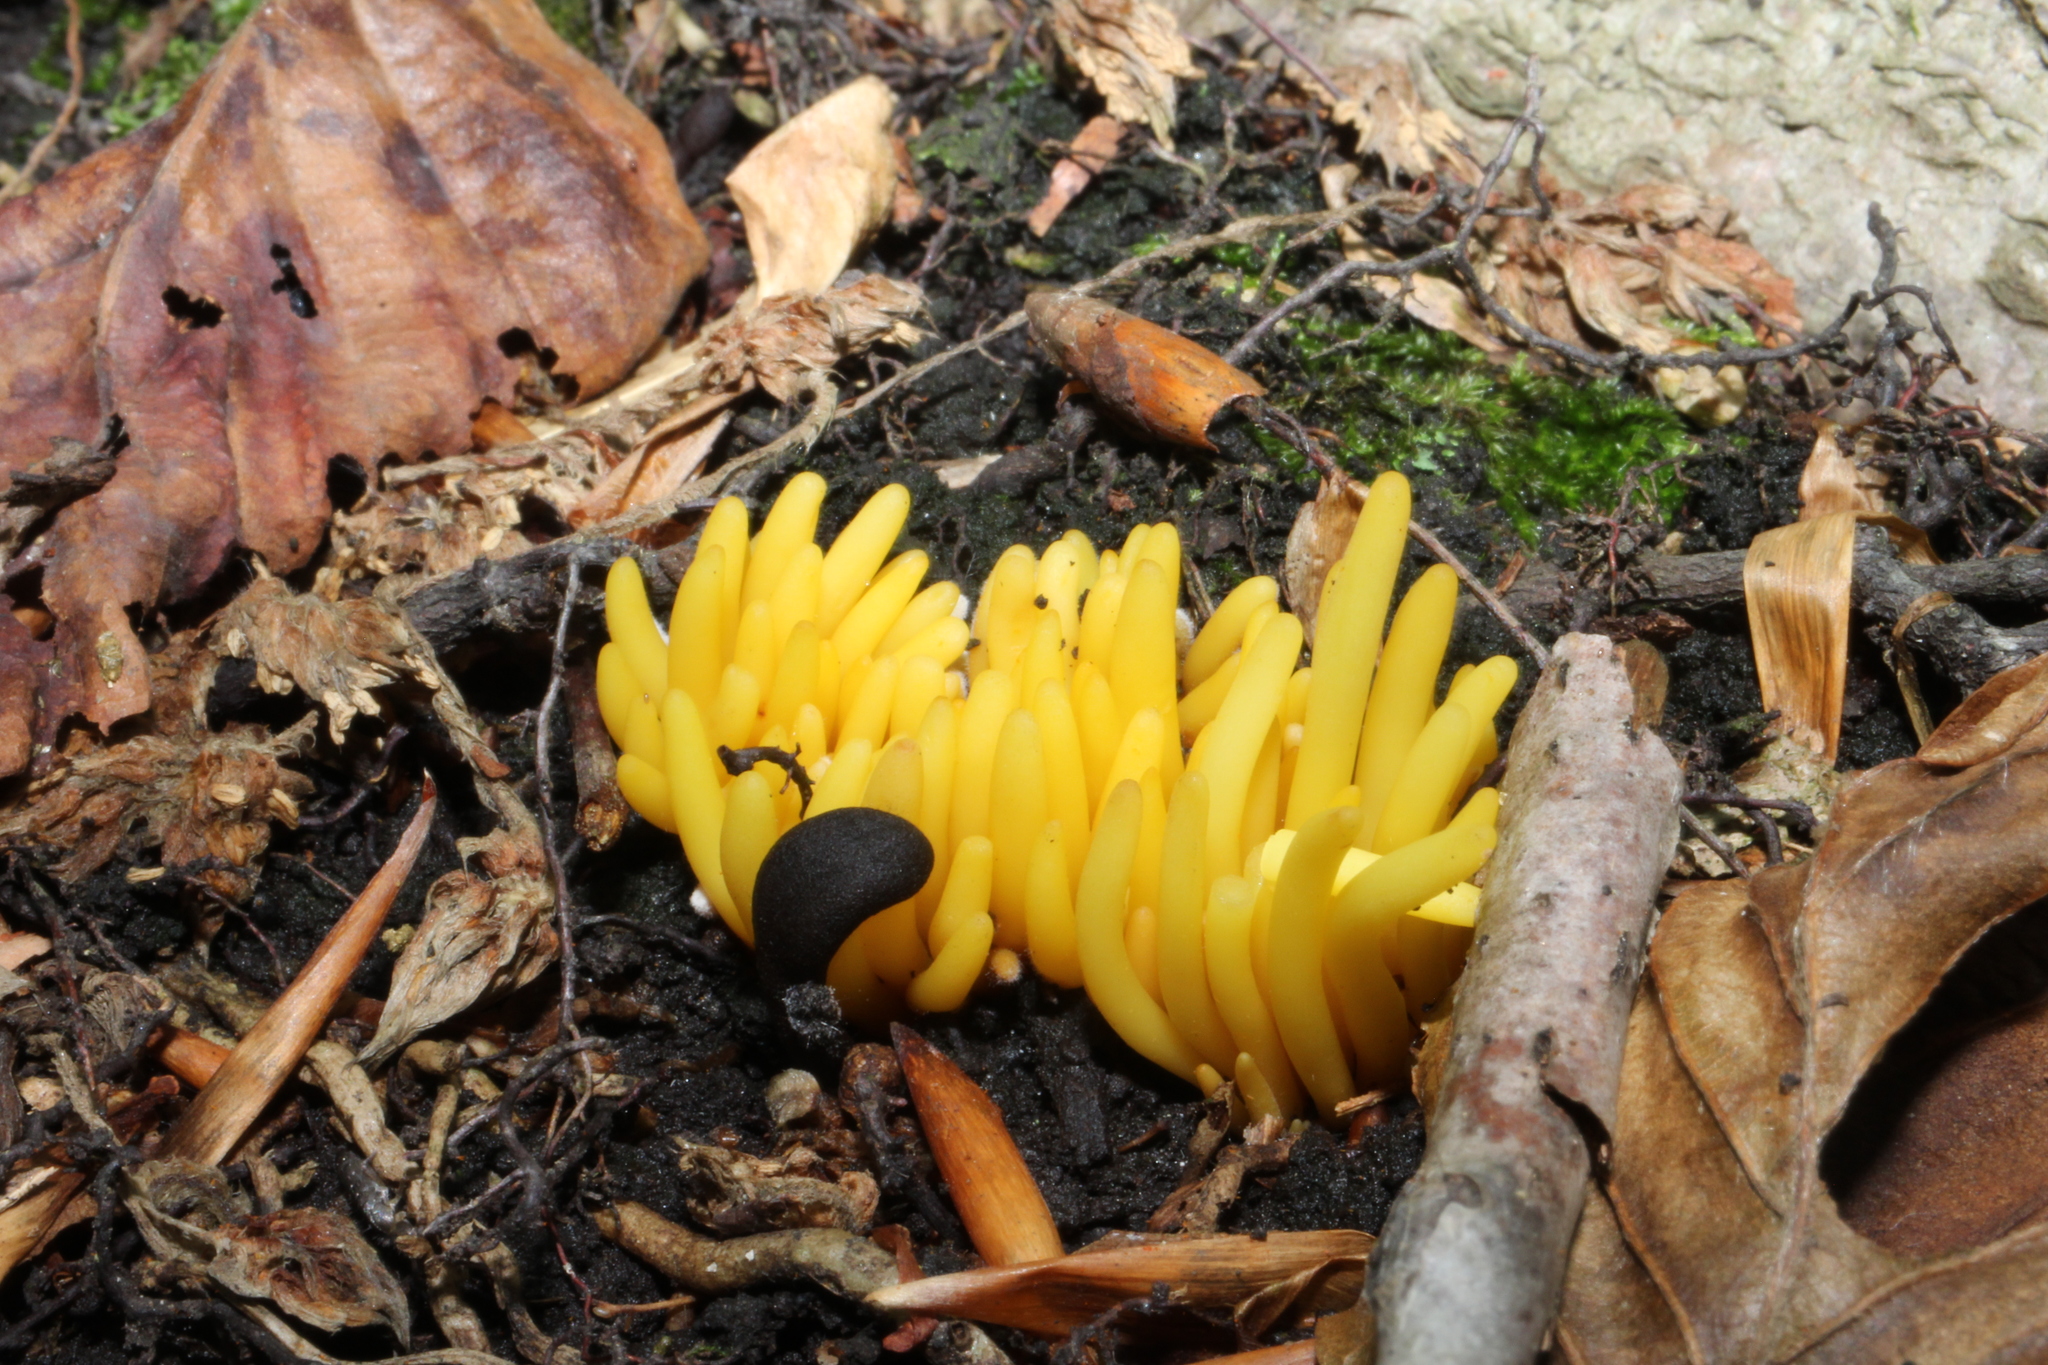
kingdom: Fungi
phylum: Basidiomycota
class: Agaricomycetes
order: Agaricales
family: Clavariaceae
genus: Clavulinopsis
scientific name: Clavulinopsis fusiformis
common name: Golden spindles
